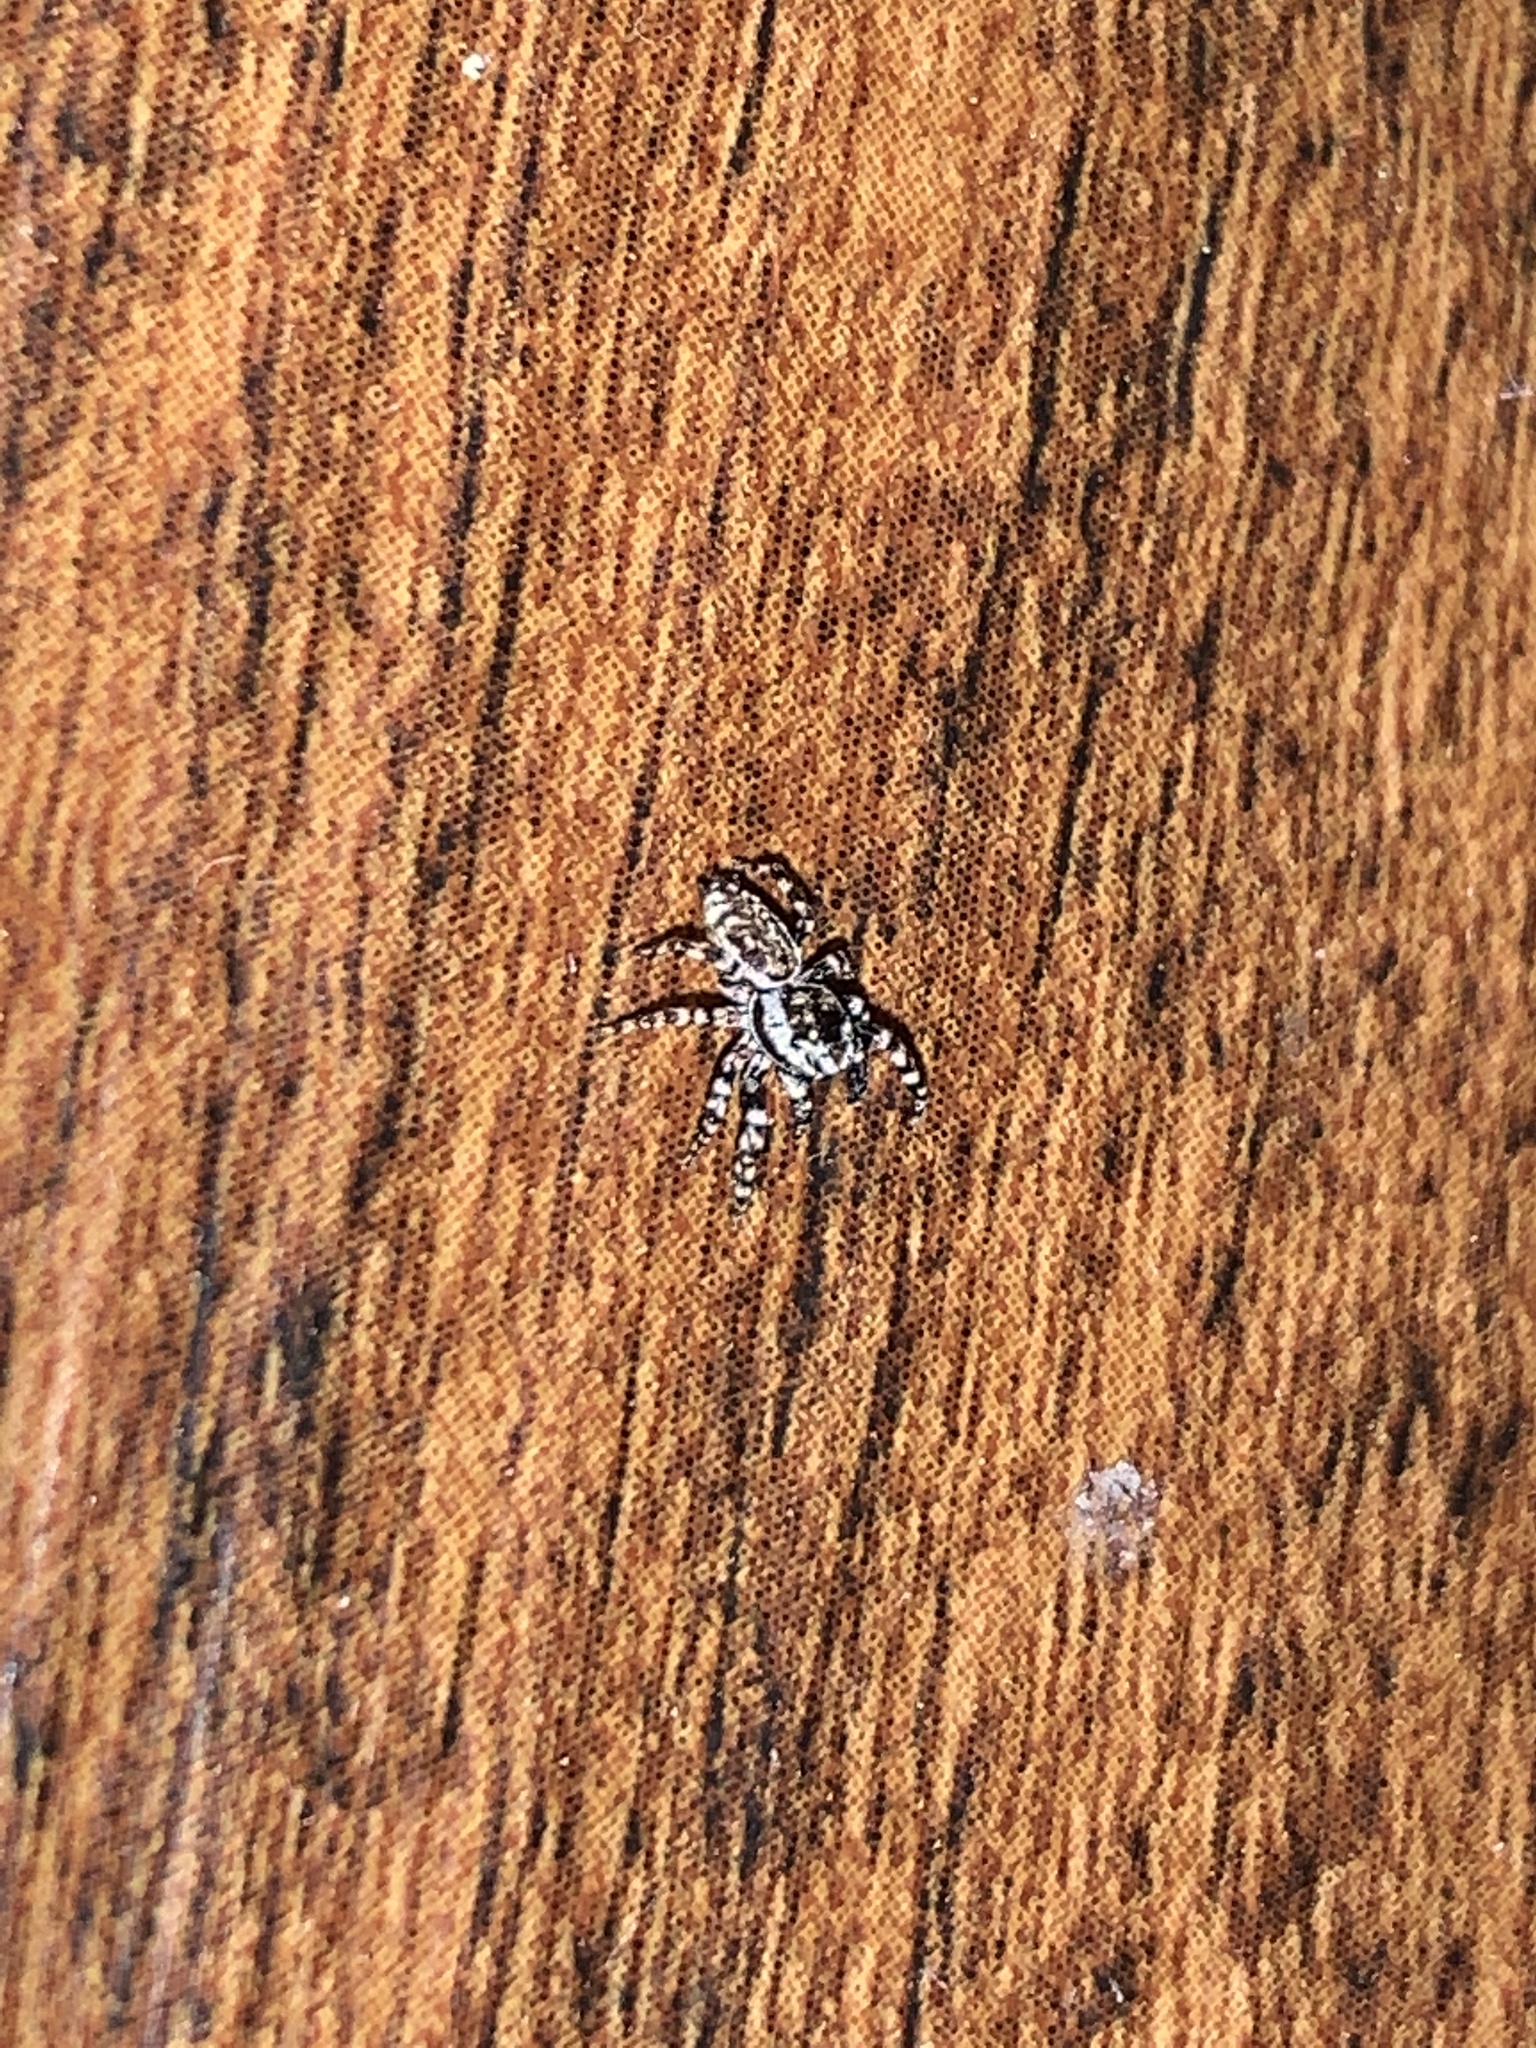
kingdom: Animalia
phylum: Arthropoda
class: Arachnida
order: Araneae
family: Salticidae
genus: Pelegrina
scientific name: Pelegrina galathea
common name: Jumping spiders
